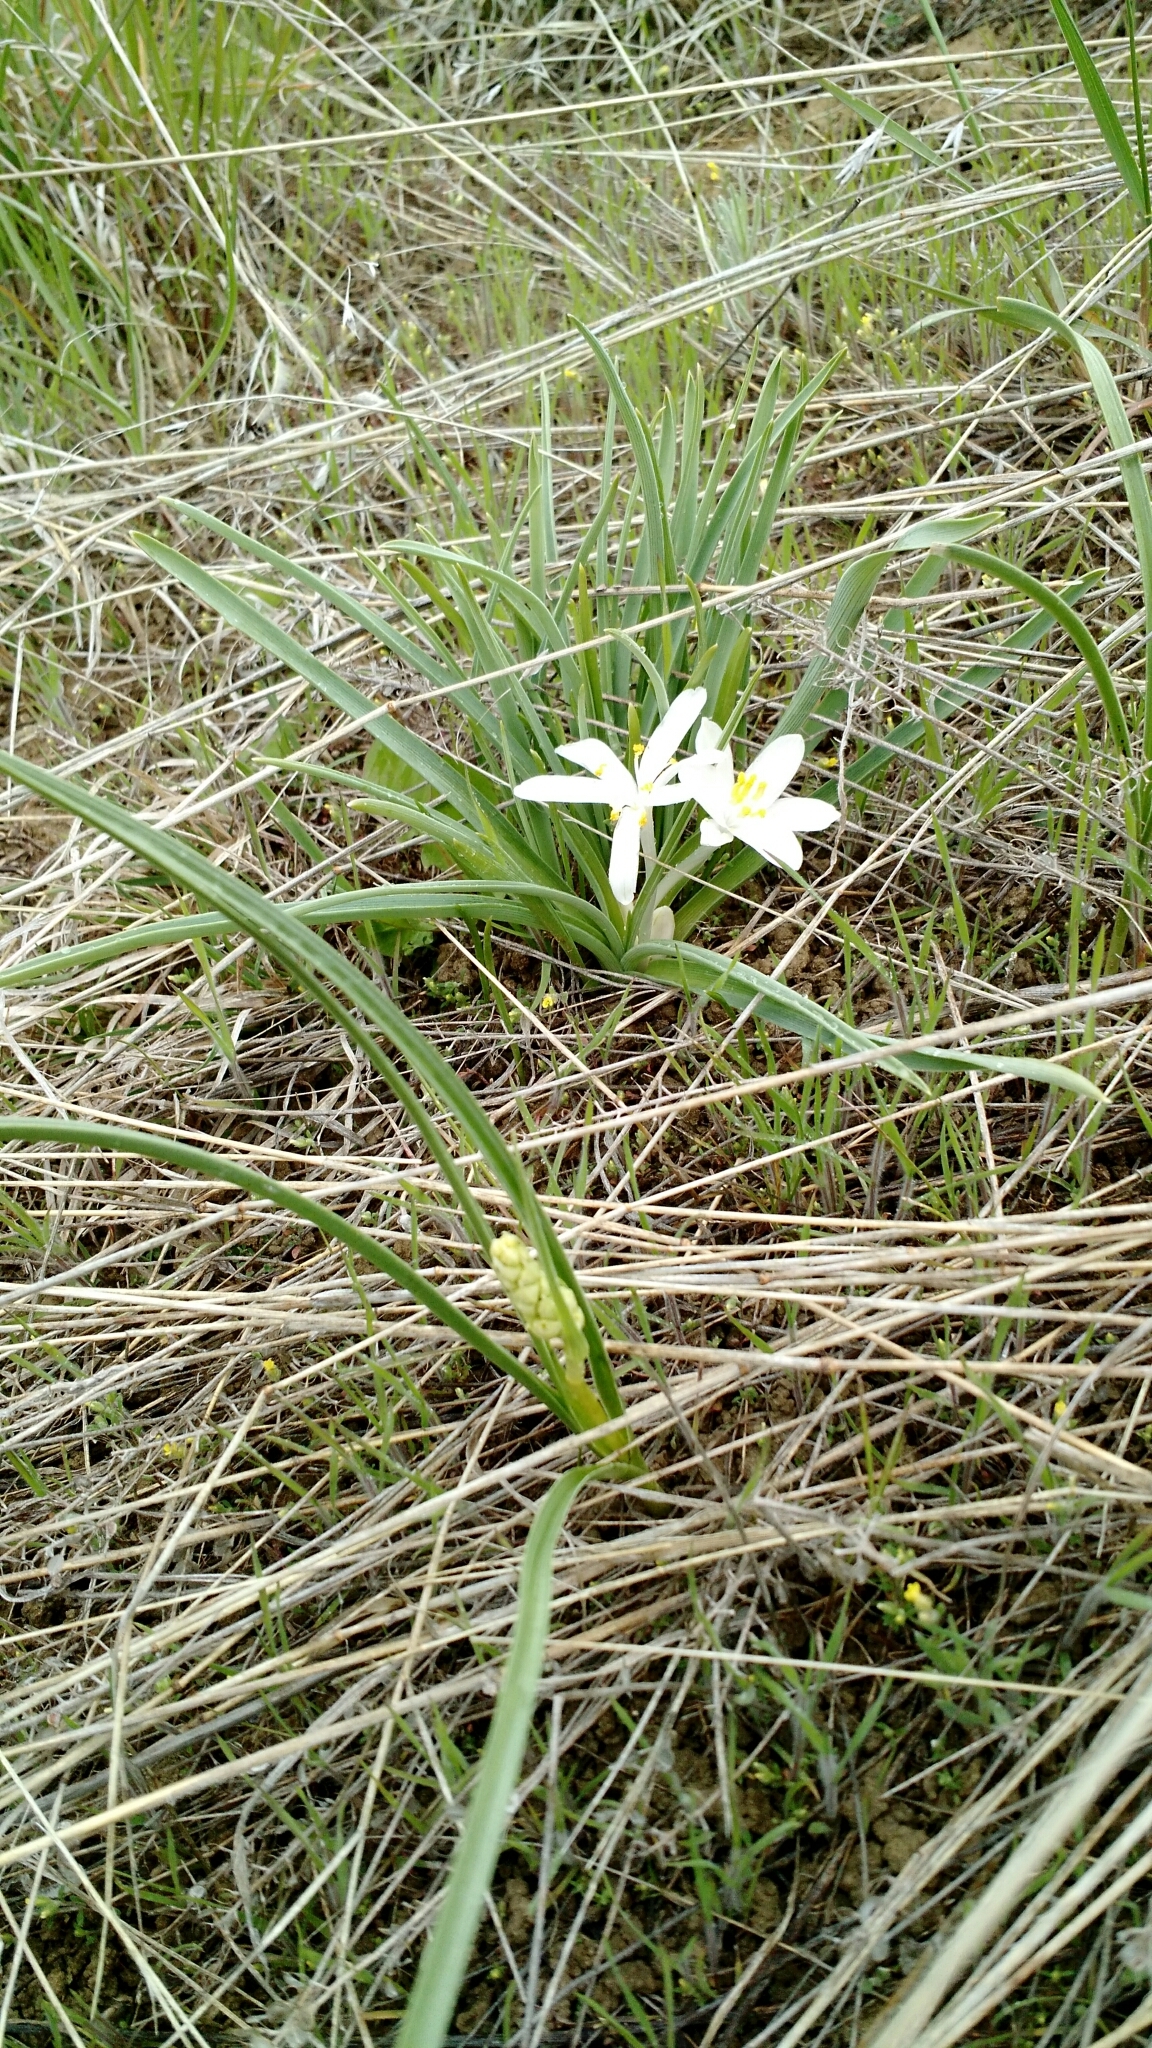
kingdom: Plantae
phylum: Tracheophyta
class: Liliopsida
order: Asparagales
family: Asparagaceae
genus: Leucocrinum
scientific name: Leucocrinum montanum
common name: Mountain-lily
